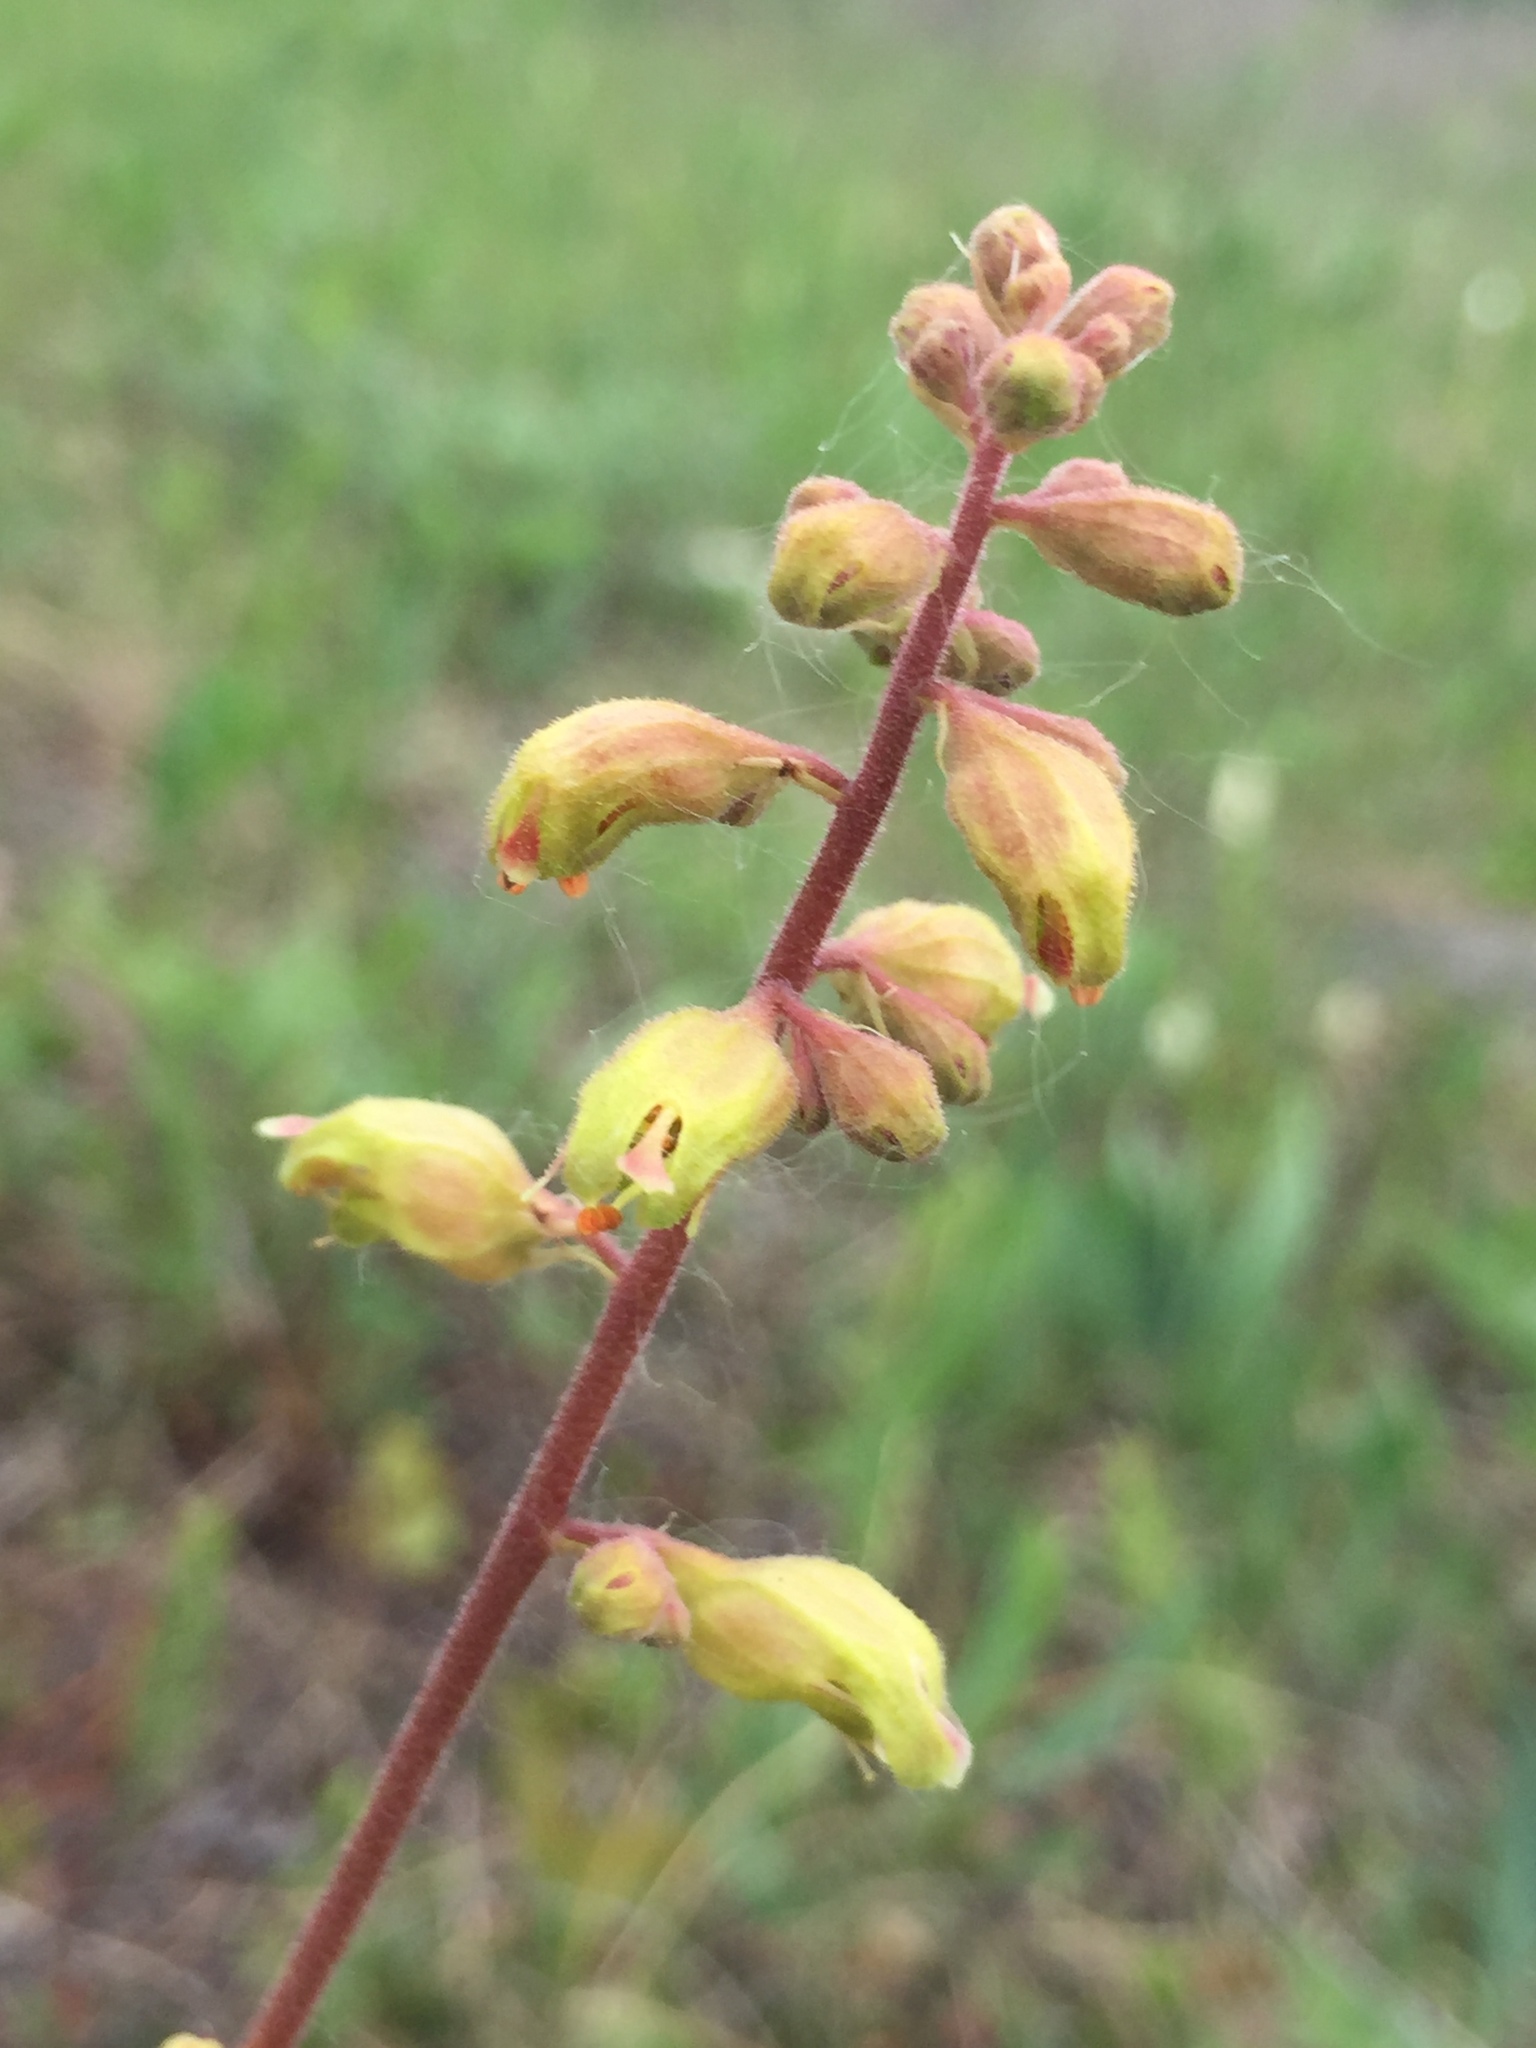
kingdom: Plantae
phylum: Tracheophyta
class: Magnoliopsida
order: Saxifragales
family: Saxifragaceae
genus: Heuchera
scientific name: Heuchera richardsonii
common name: Richardson's alumroot
